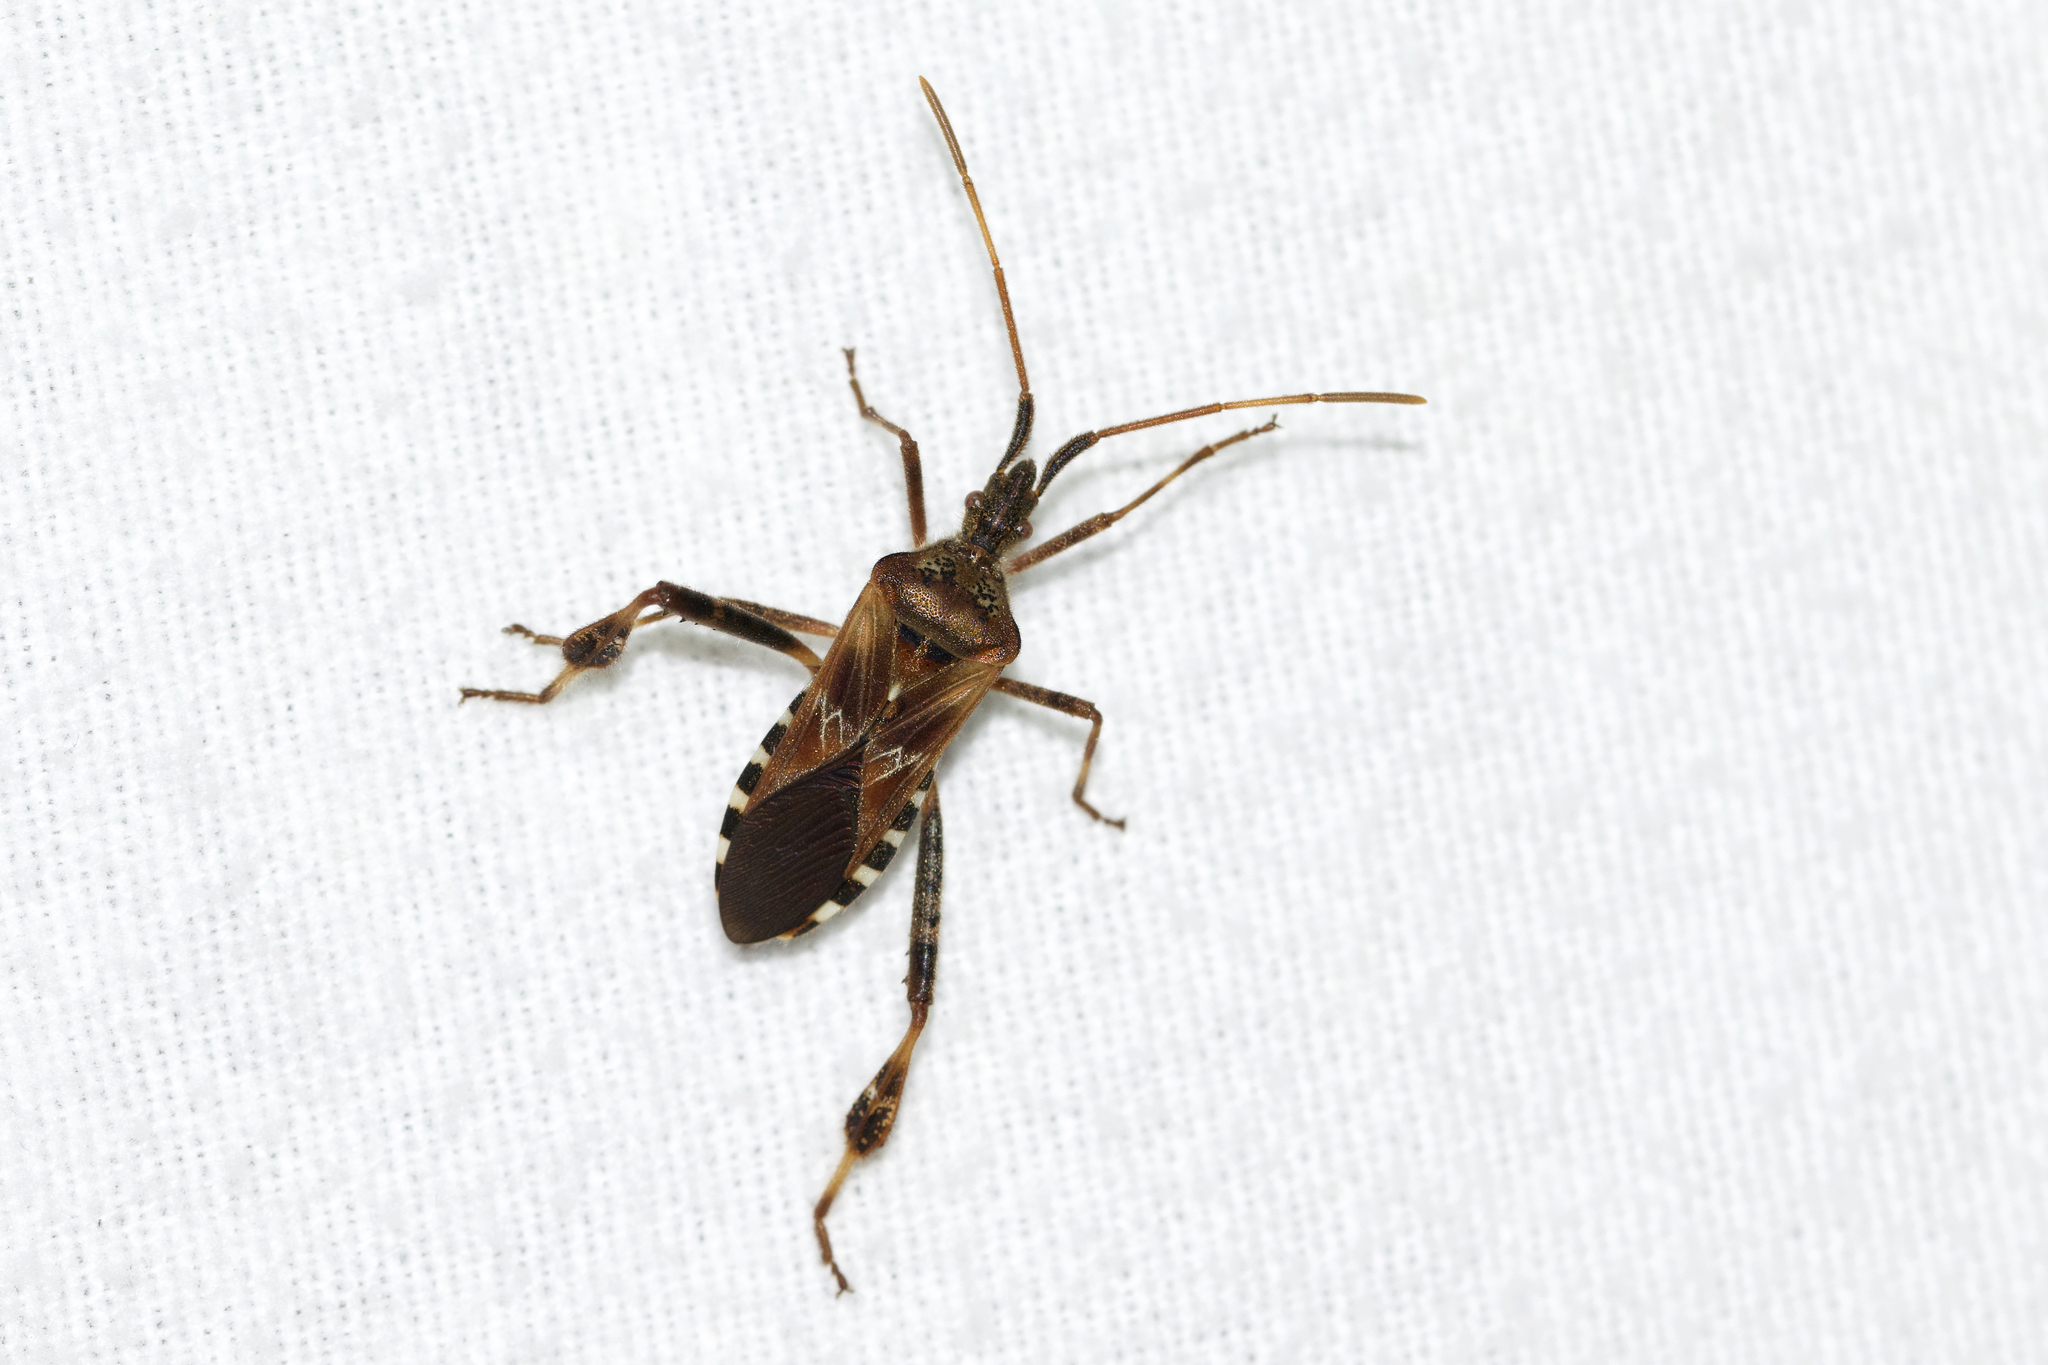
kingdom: Animalia
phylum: Arthropoda
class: Insecta
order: Hemiptera
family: Coreidae
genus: Leptoglossus
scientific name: Leptoglossus occidentalis
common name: Western conifer-seed bug
